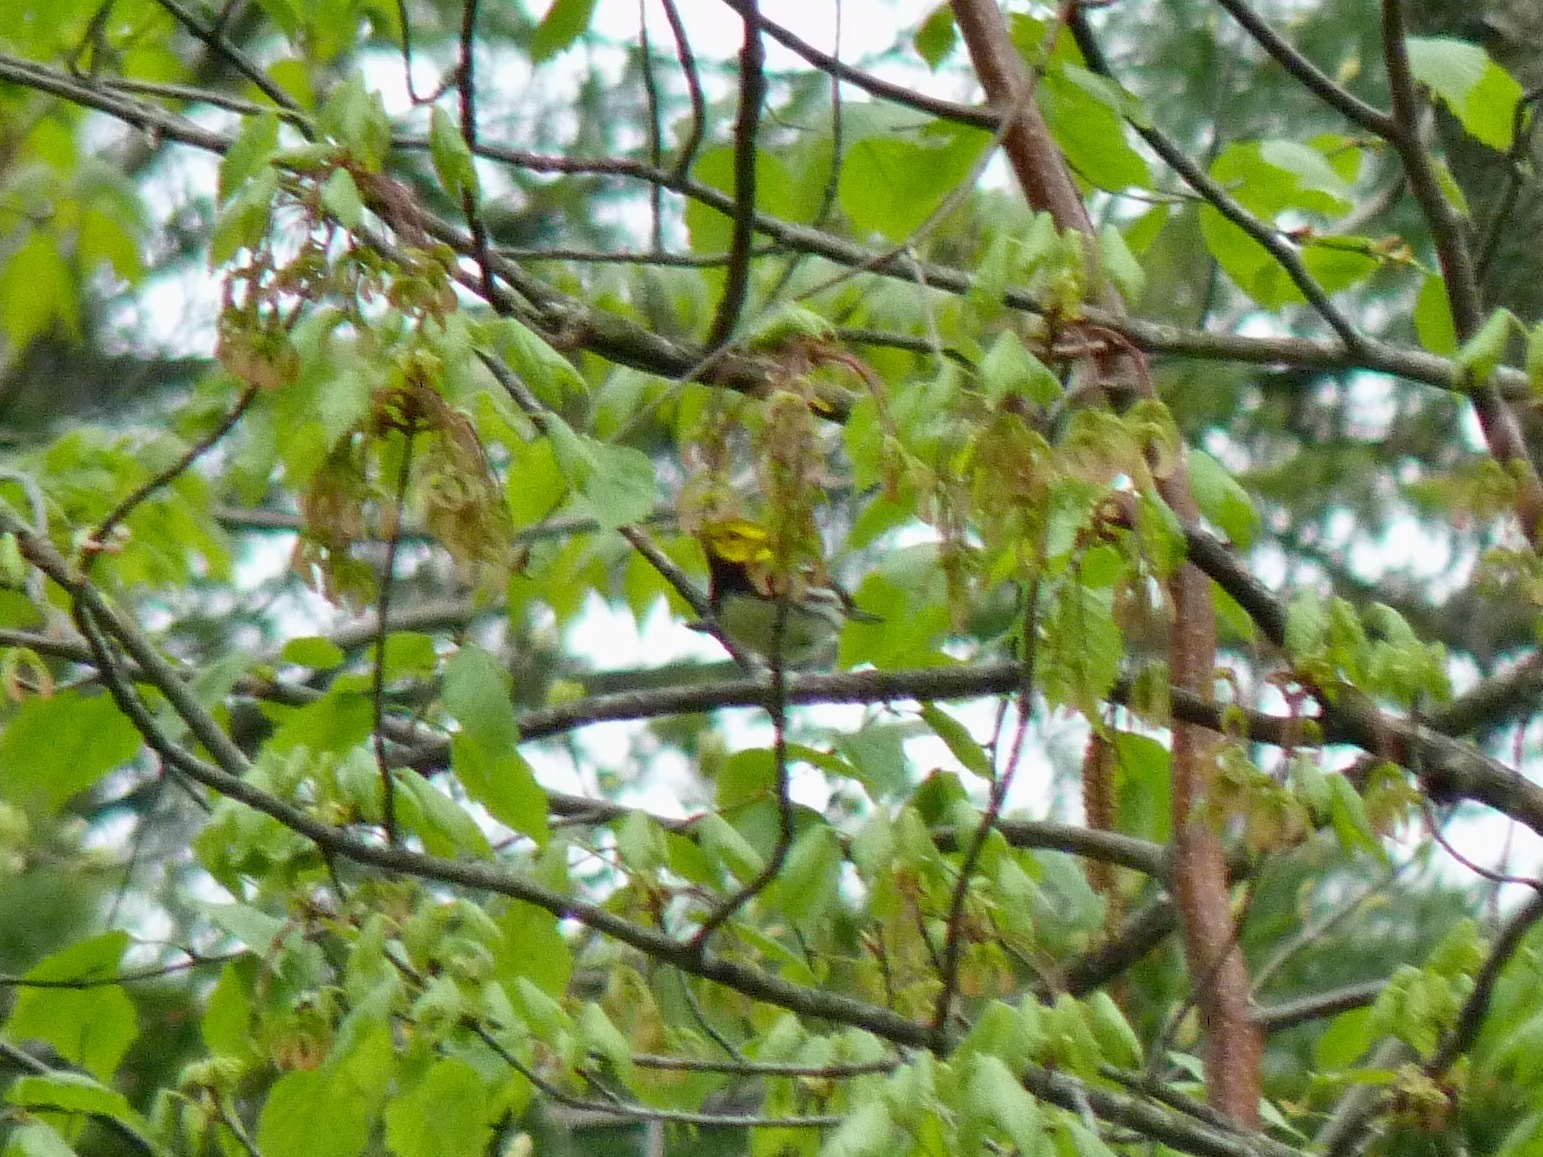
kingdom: Animalia
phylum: Chordata
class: Aves
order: Passeriformes
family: Parulidae
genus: Setophaga
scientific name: Setophaga virens
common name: Black-throated green warbler
